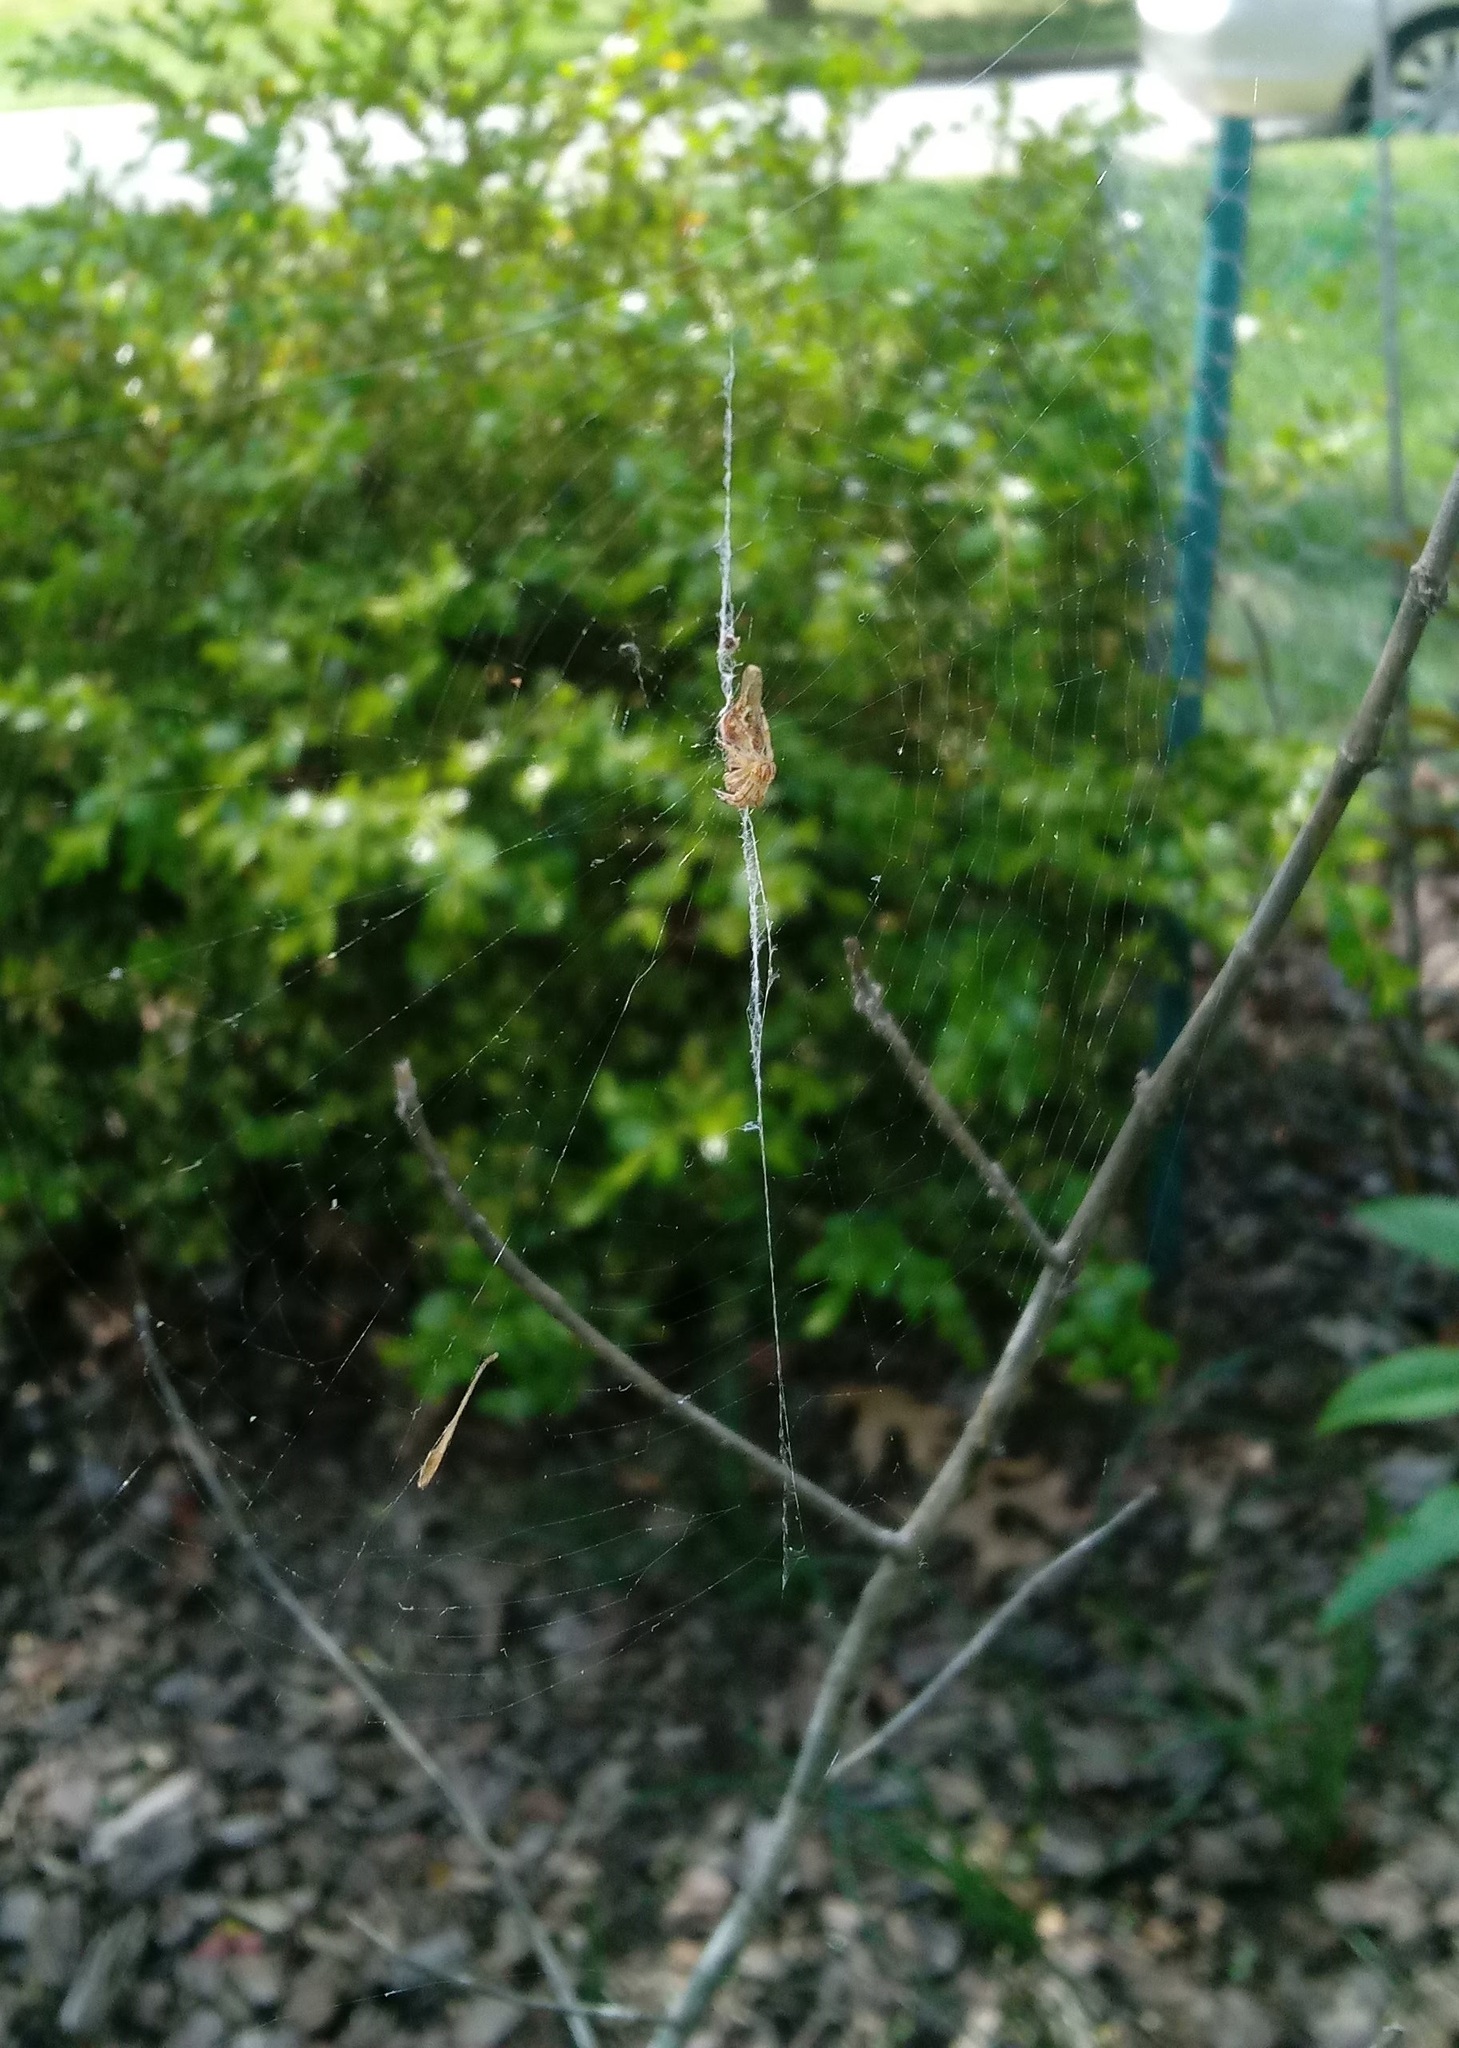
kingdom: Animalia
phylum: Arthropoda
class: Arachnida
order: Araneae
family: Araneidae
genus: Cyclosa
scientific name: Cyclosa conica
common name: Conical trashline orbweaver
